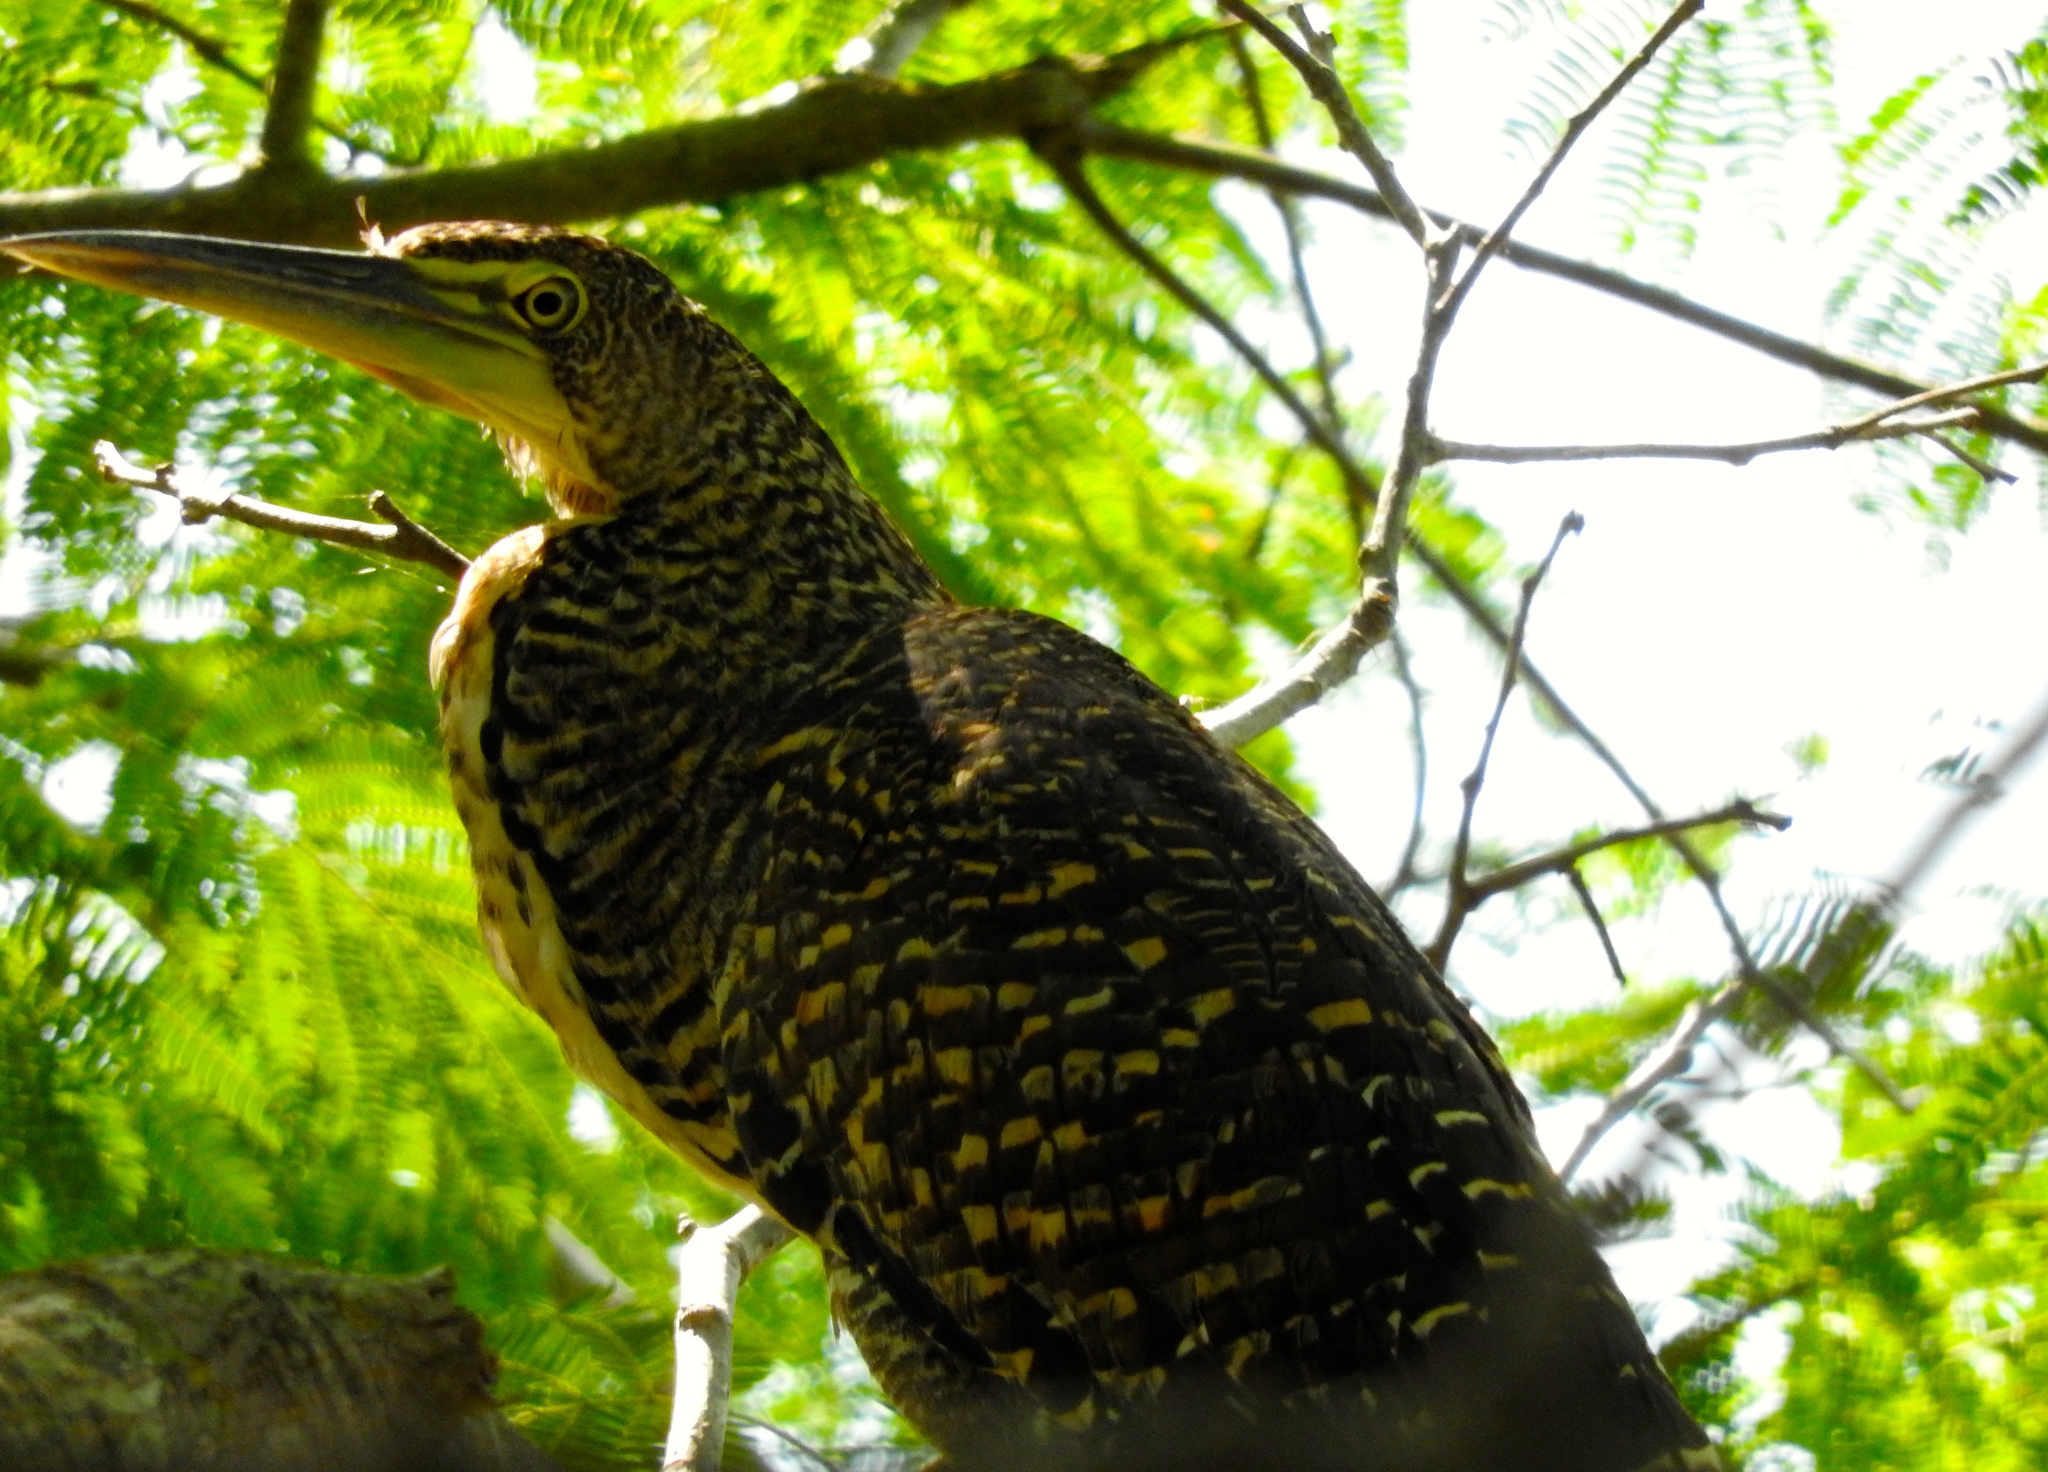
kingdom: Animalia
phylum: Chordata
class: Aves
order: Pelecaniformes
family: Ardeidae
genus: Tigrisoma
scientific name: Tigrisoma mexicanum
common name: Bare-throated tiger-heron
